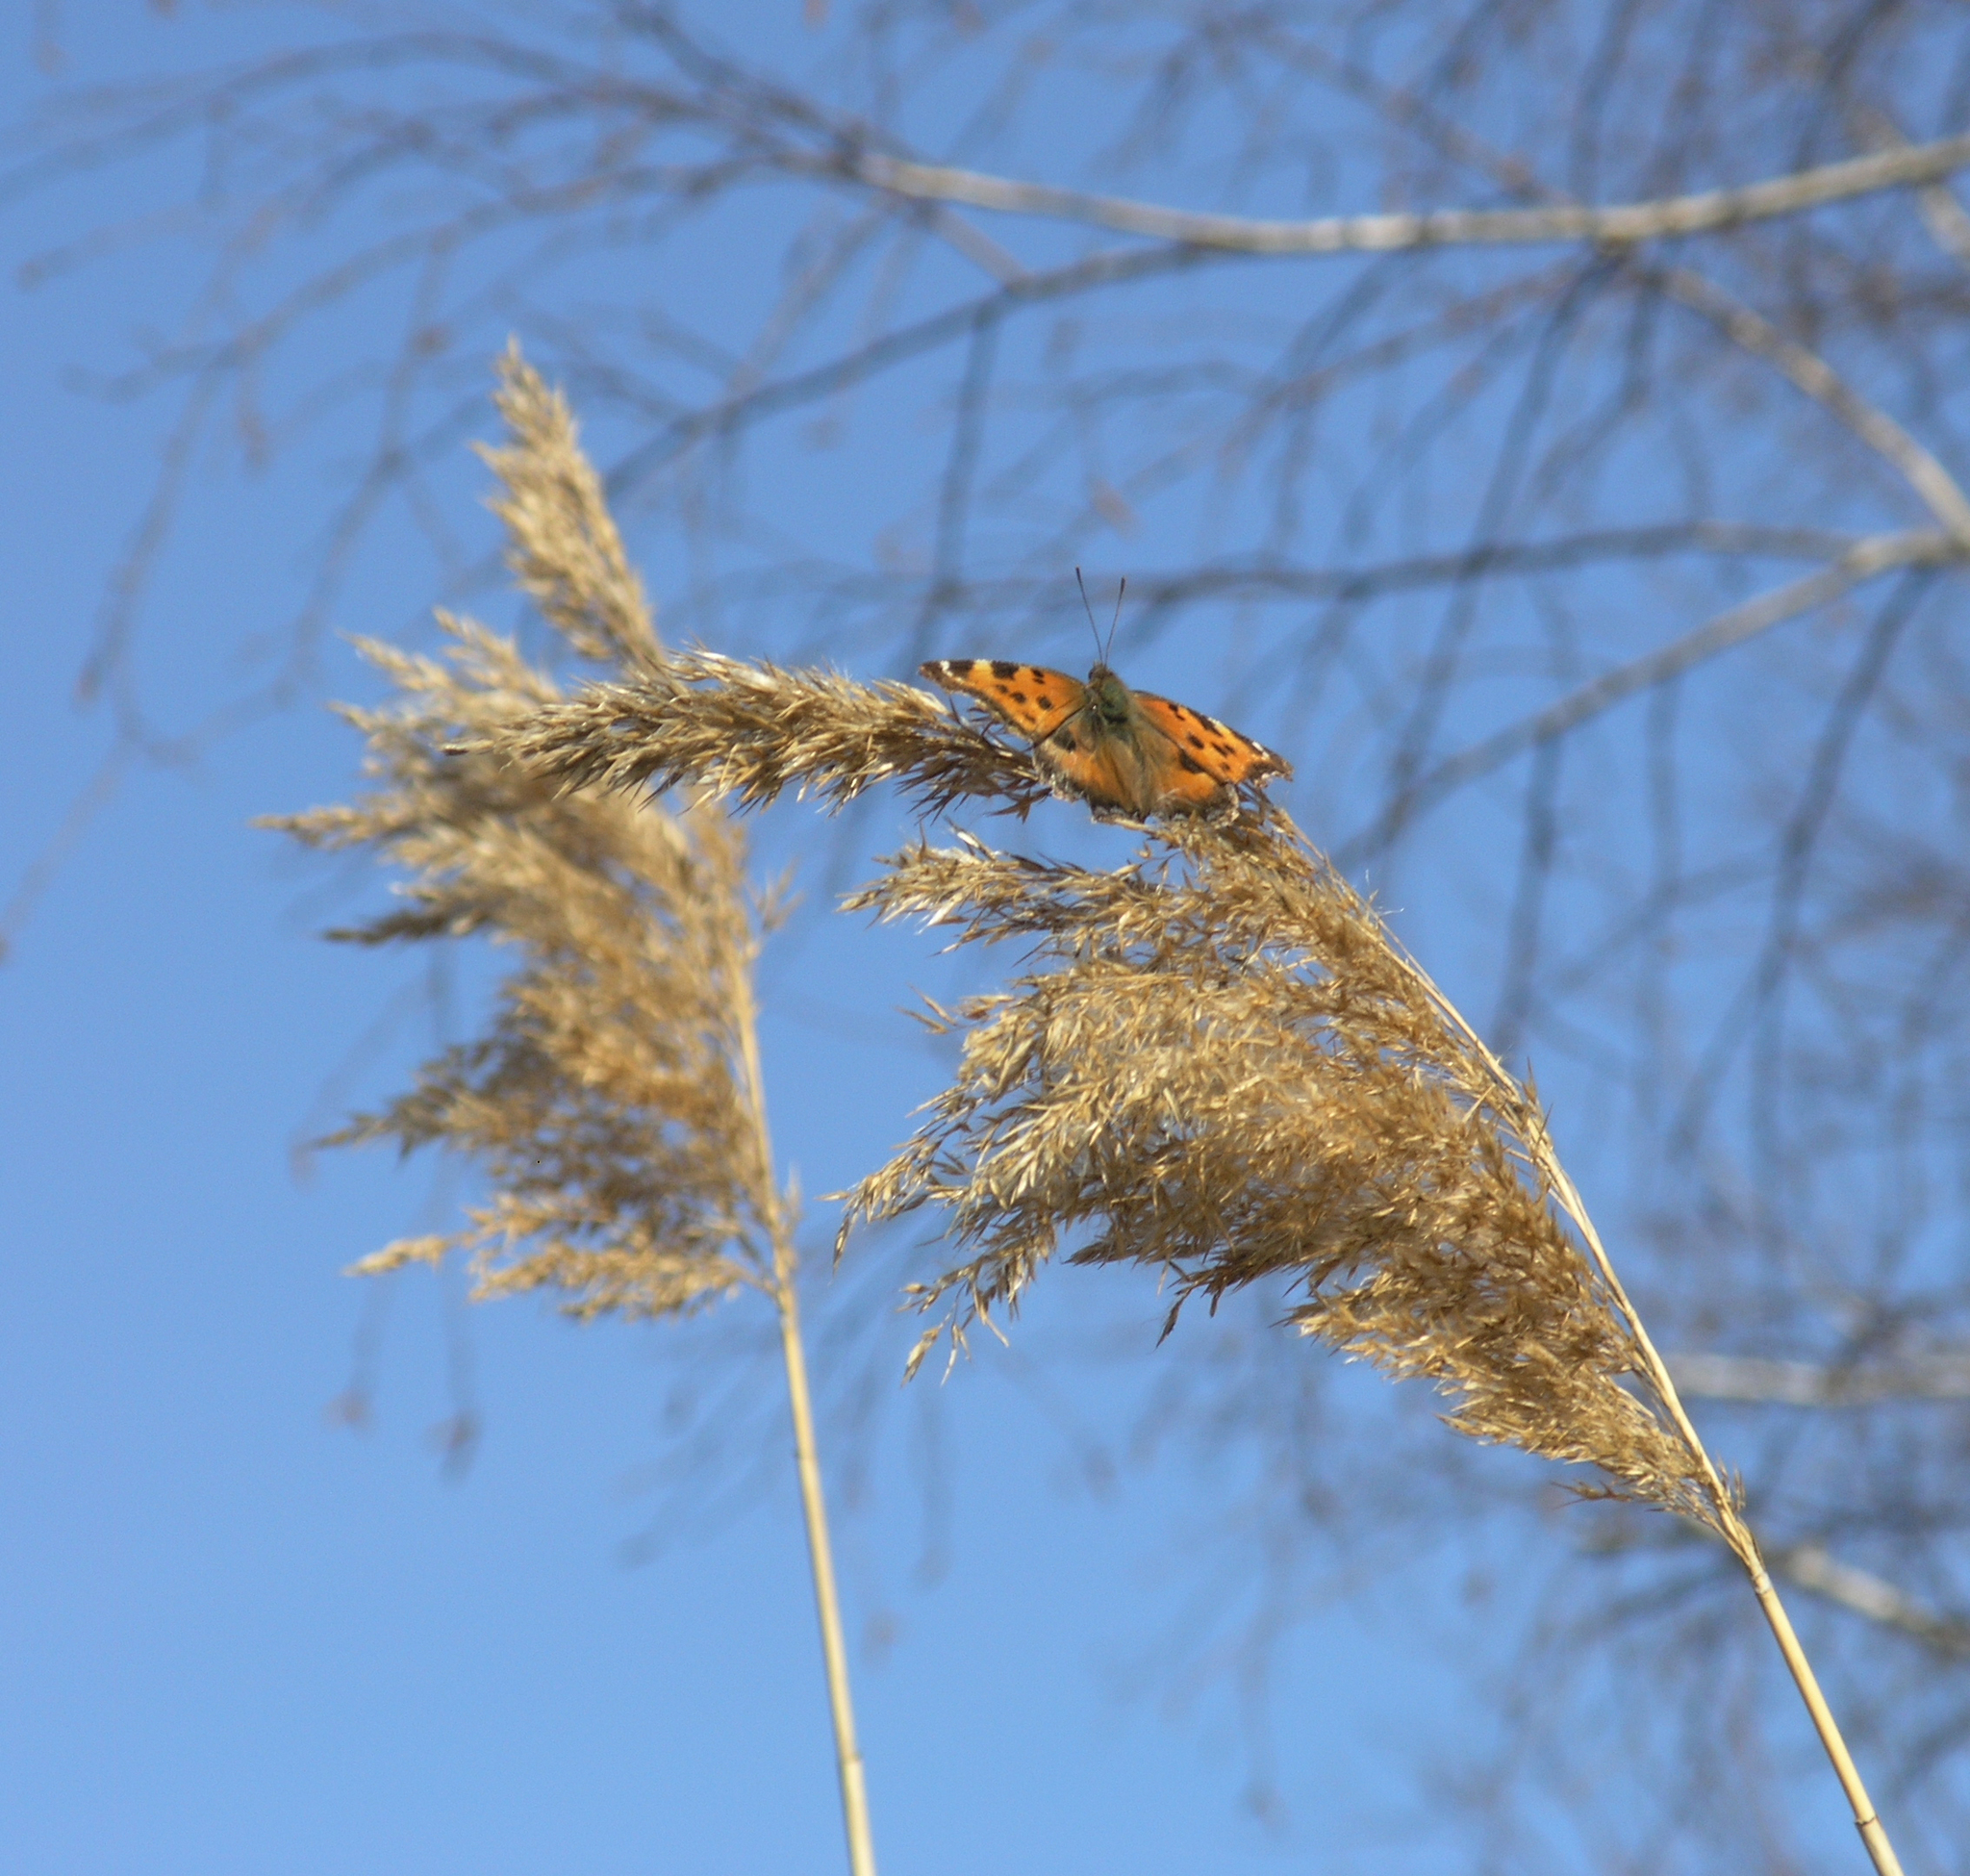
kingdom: Animalia
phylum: Arthropoda
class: Insecta
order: Lepidoptera
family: Nymphalidae
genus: Nymphalis
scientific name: Nymphalis xanthomelas
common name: Scarce tortoiseshell
